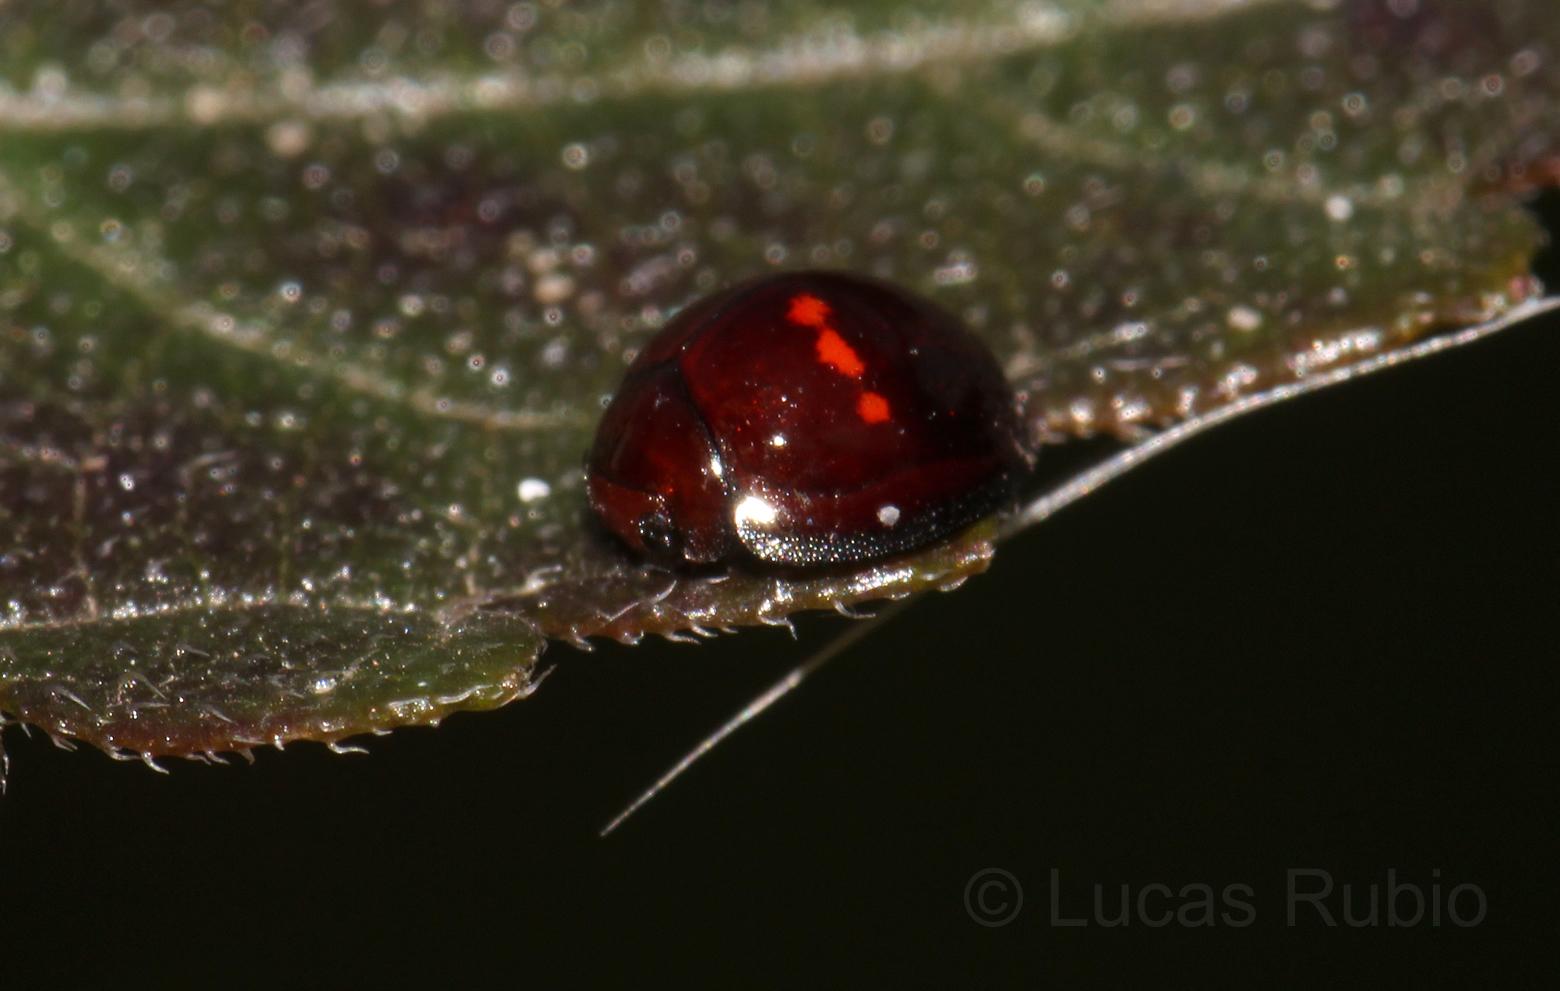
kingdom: Animalia
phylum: Arthropoda
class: Insecta
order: Coleoptera
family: Coccinellidae
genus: Chilocorus
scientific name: Chilocorus bipustulatus
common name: Heather ladybird
